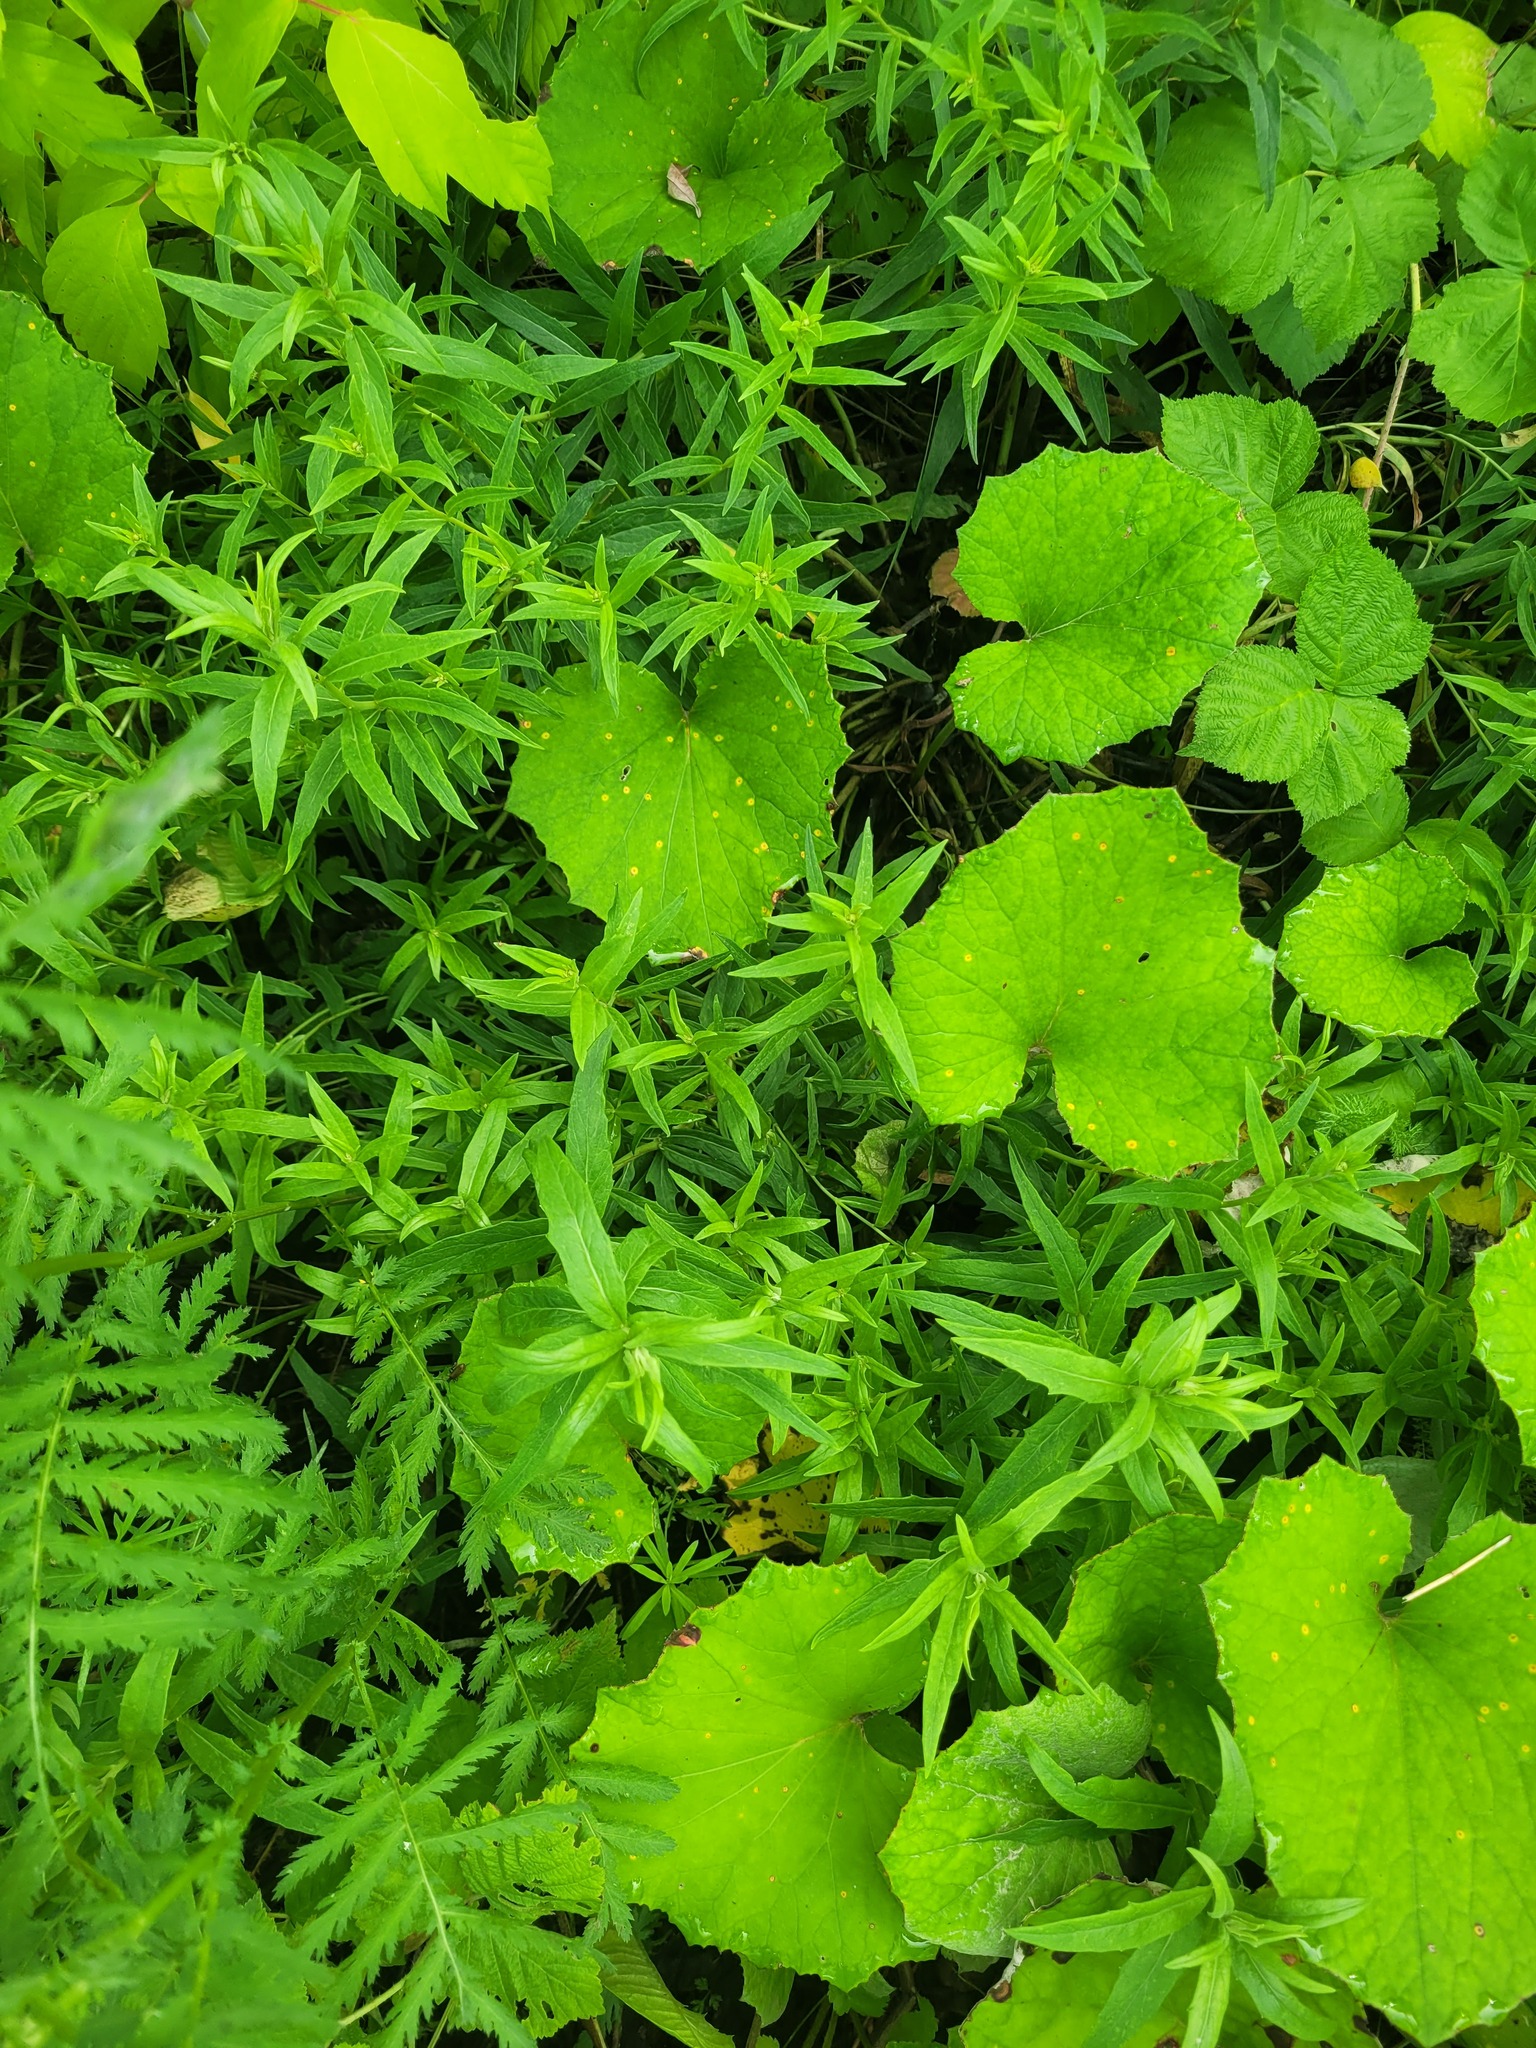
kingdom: Plantae
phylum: Tracheophyta
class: Magnoliopsida
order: Asterales
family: Asteraceae
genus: Hieracium
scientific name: Hieracium umbellatum
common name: Northern hawkweed
